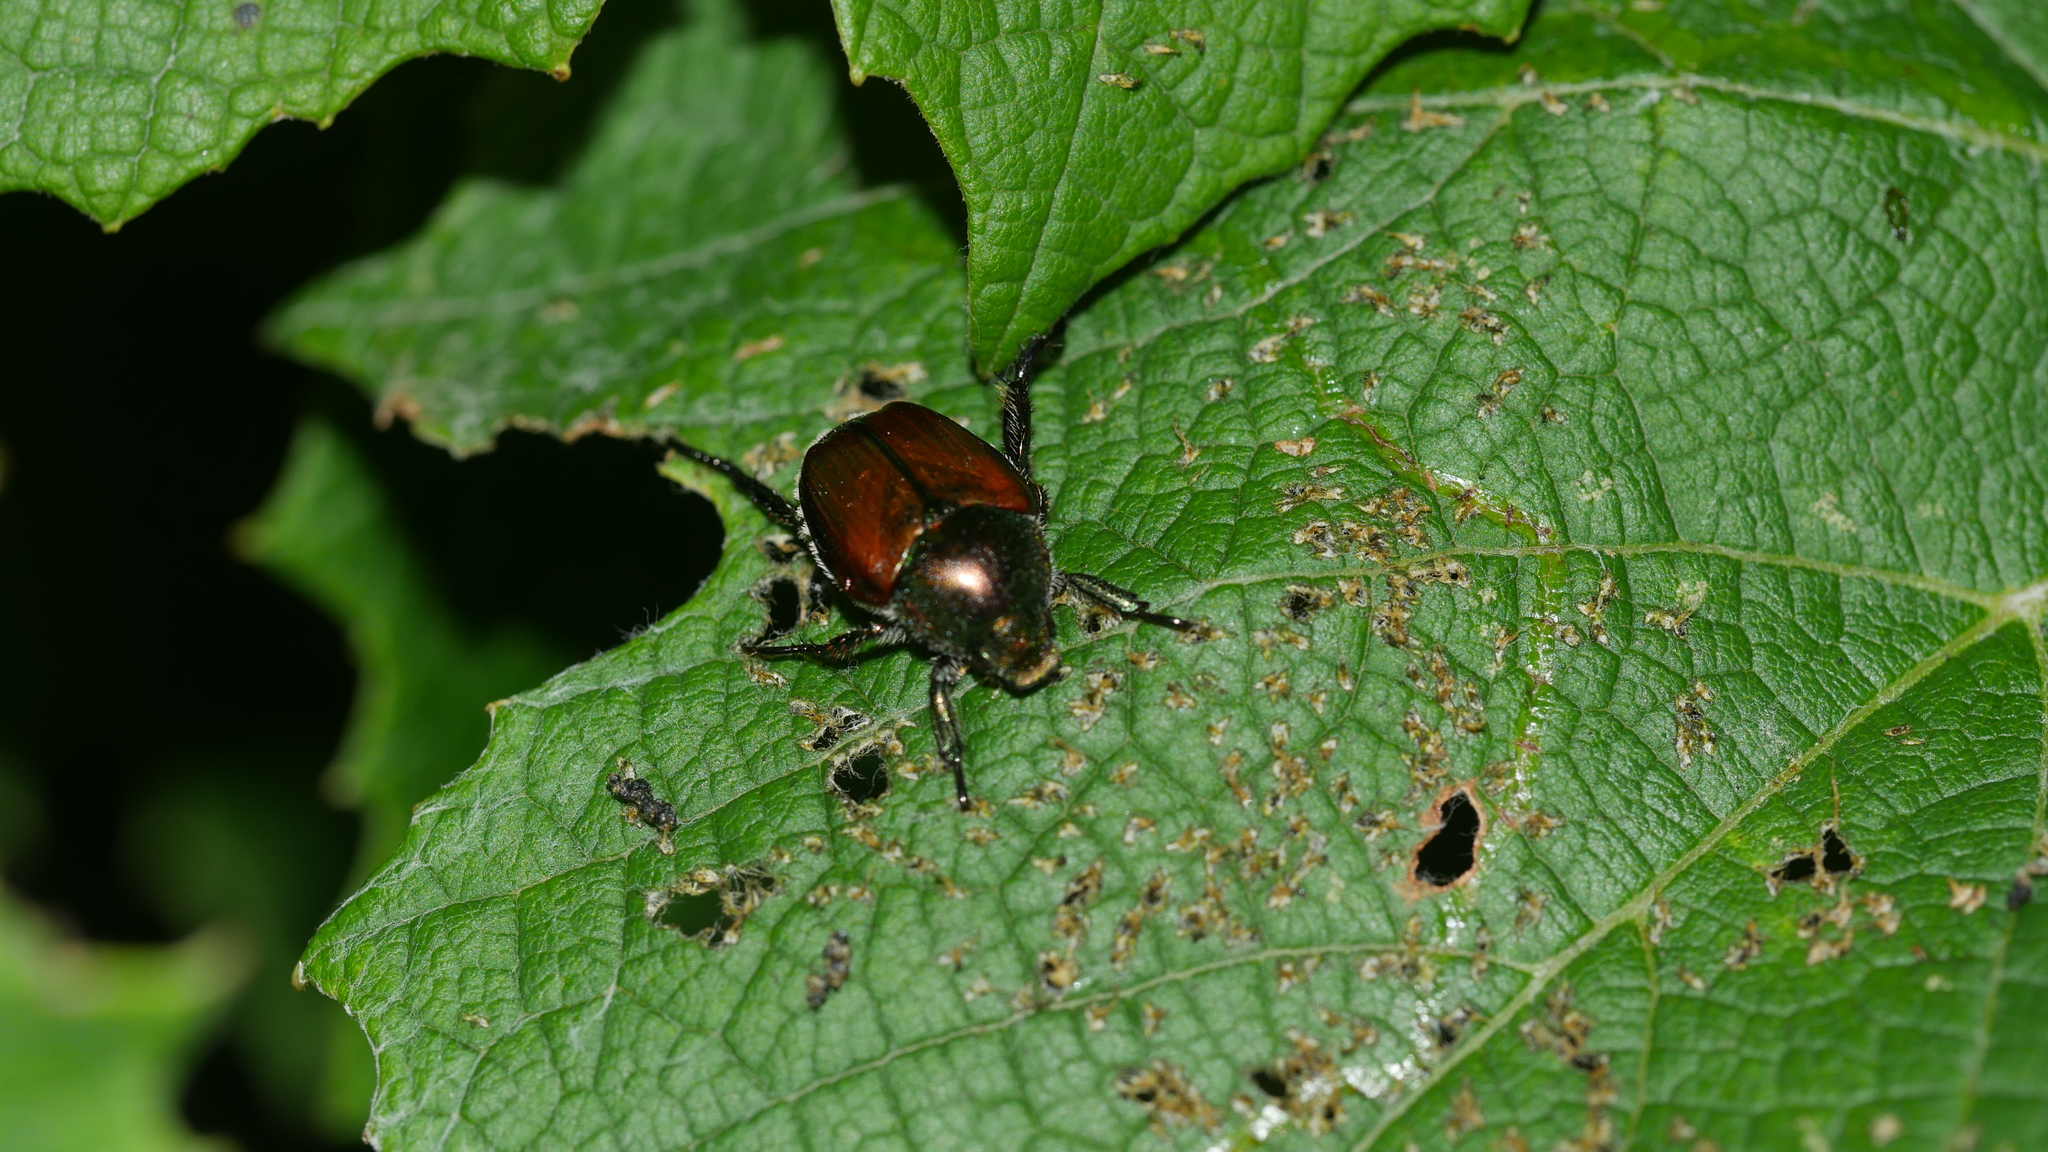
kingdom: Animalia
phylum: Arthropoda
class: Insecta
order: Coleoptera
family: Scarabaeidae
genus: Popillia
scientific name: Popillia japonica
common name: Japanese beetle
